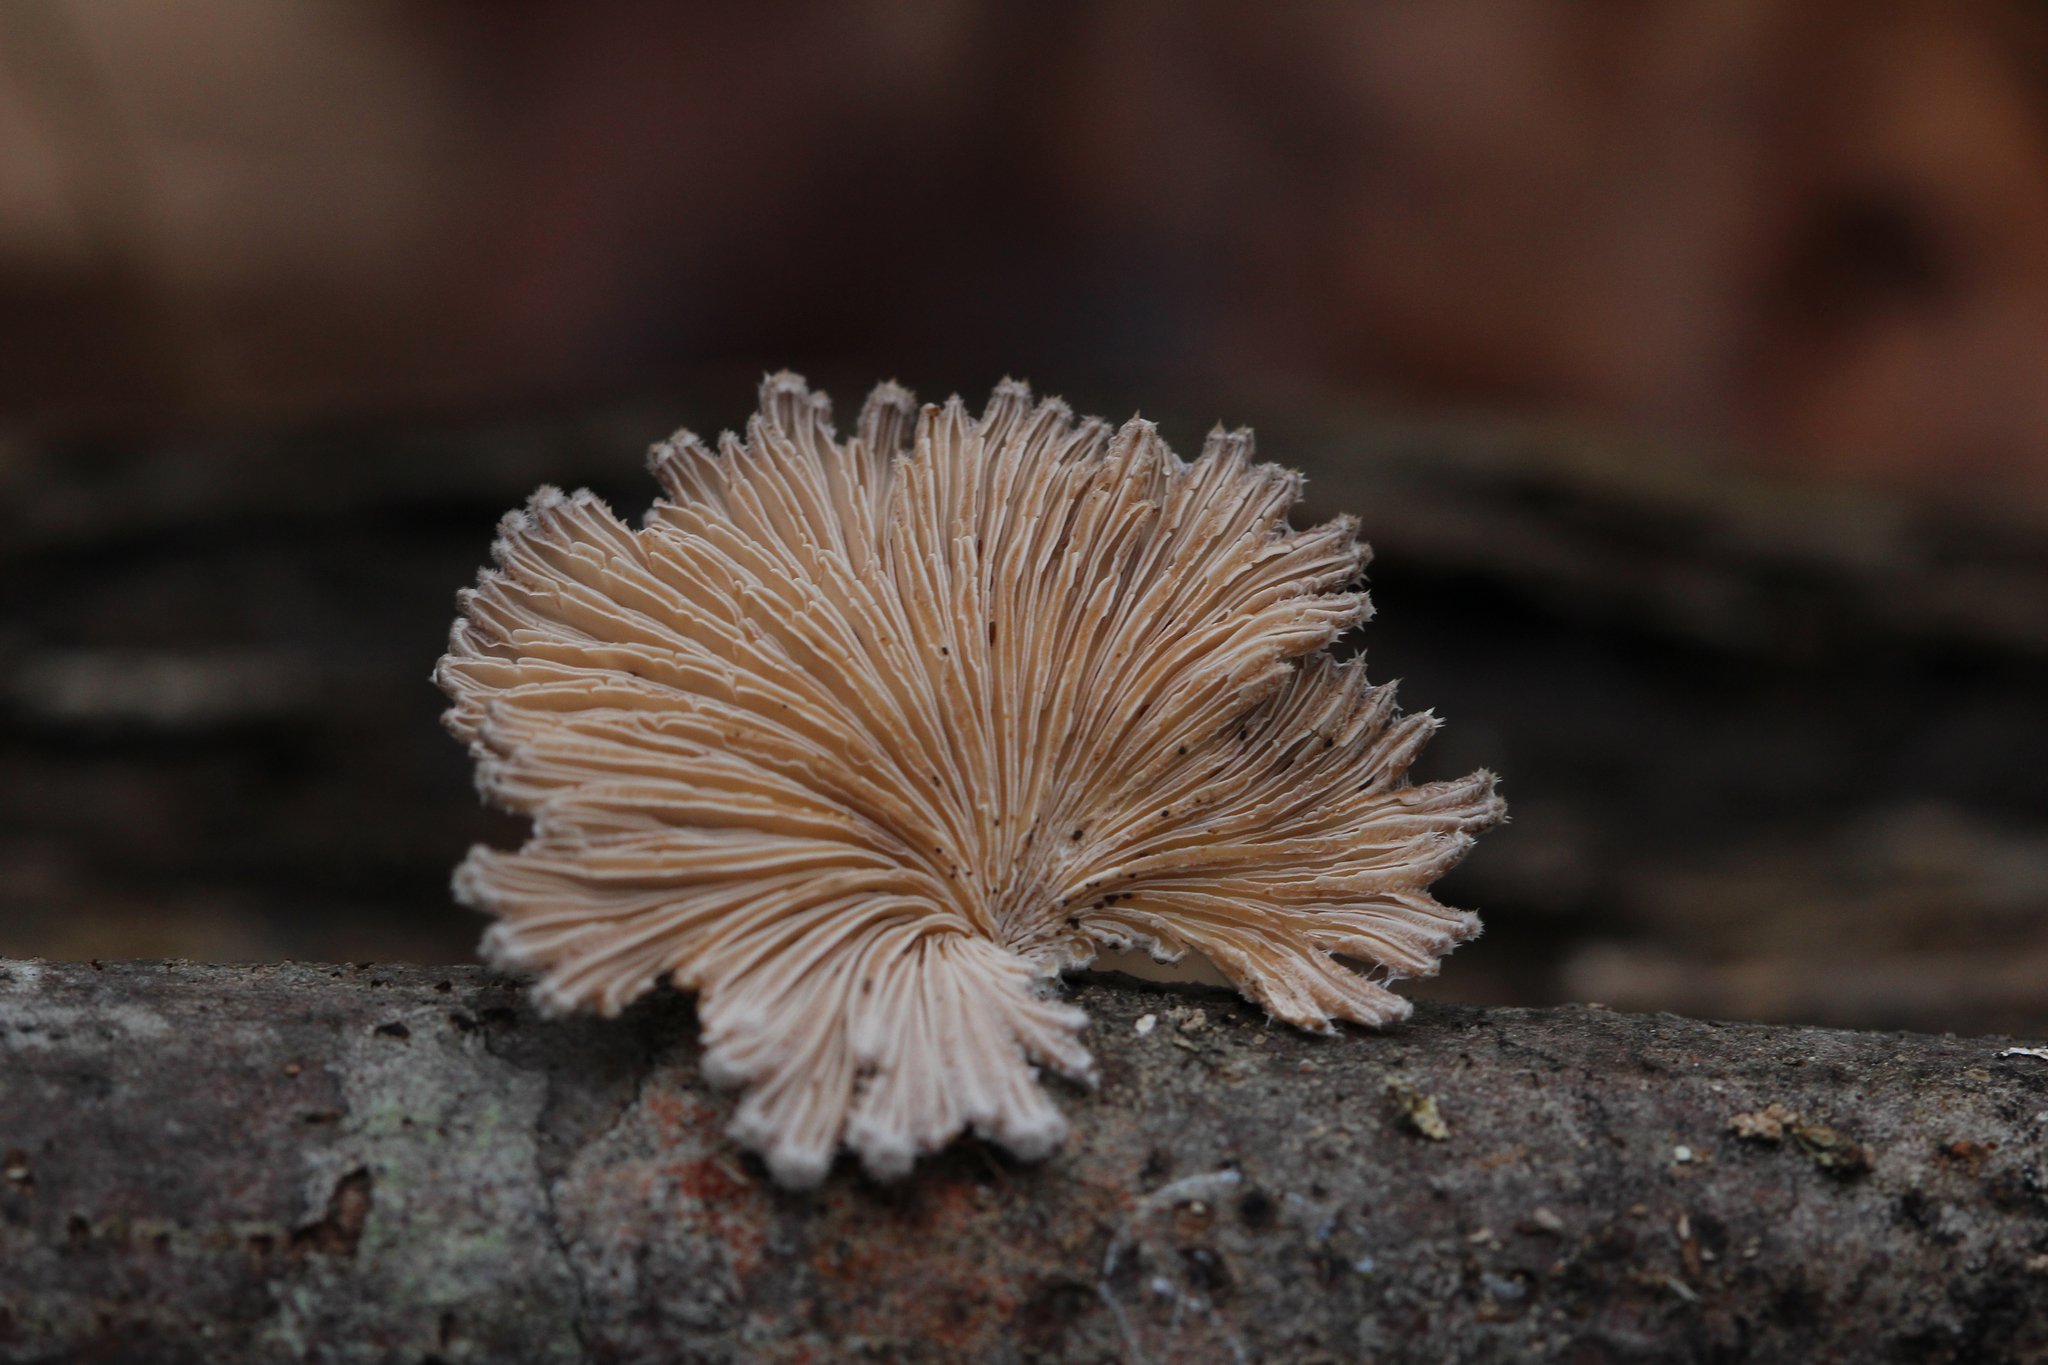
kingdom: Fungi
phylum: Basidiomycota
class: Agaricomycetes
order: Agaricales
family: Schizophyllaceae
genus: Schizophyllum
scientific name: Schizophyllum commune
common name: Common porecrust
